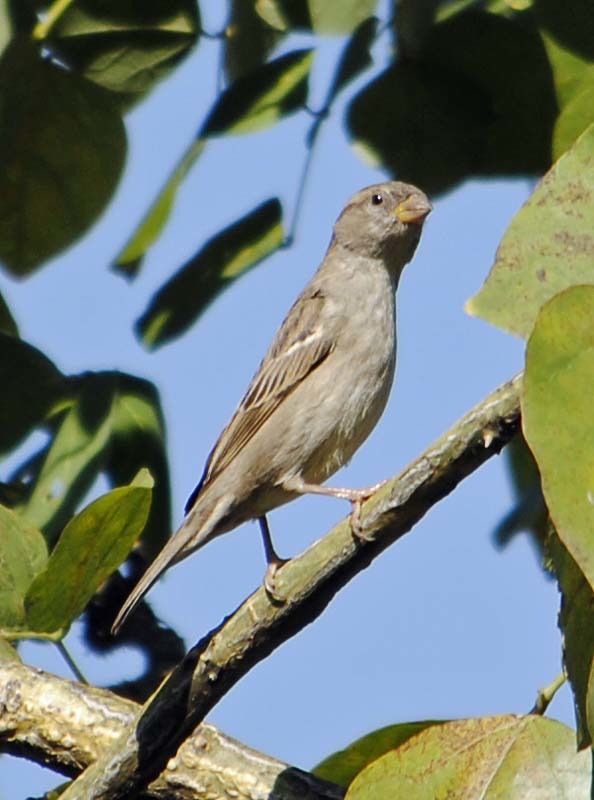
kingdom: Animalia
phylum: Chordata
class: Aves
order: Passeriformes
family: Passeridae
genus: Passer
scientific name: Passer domesticus
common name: House sparrow
